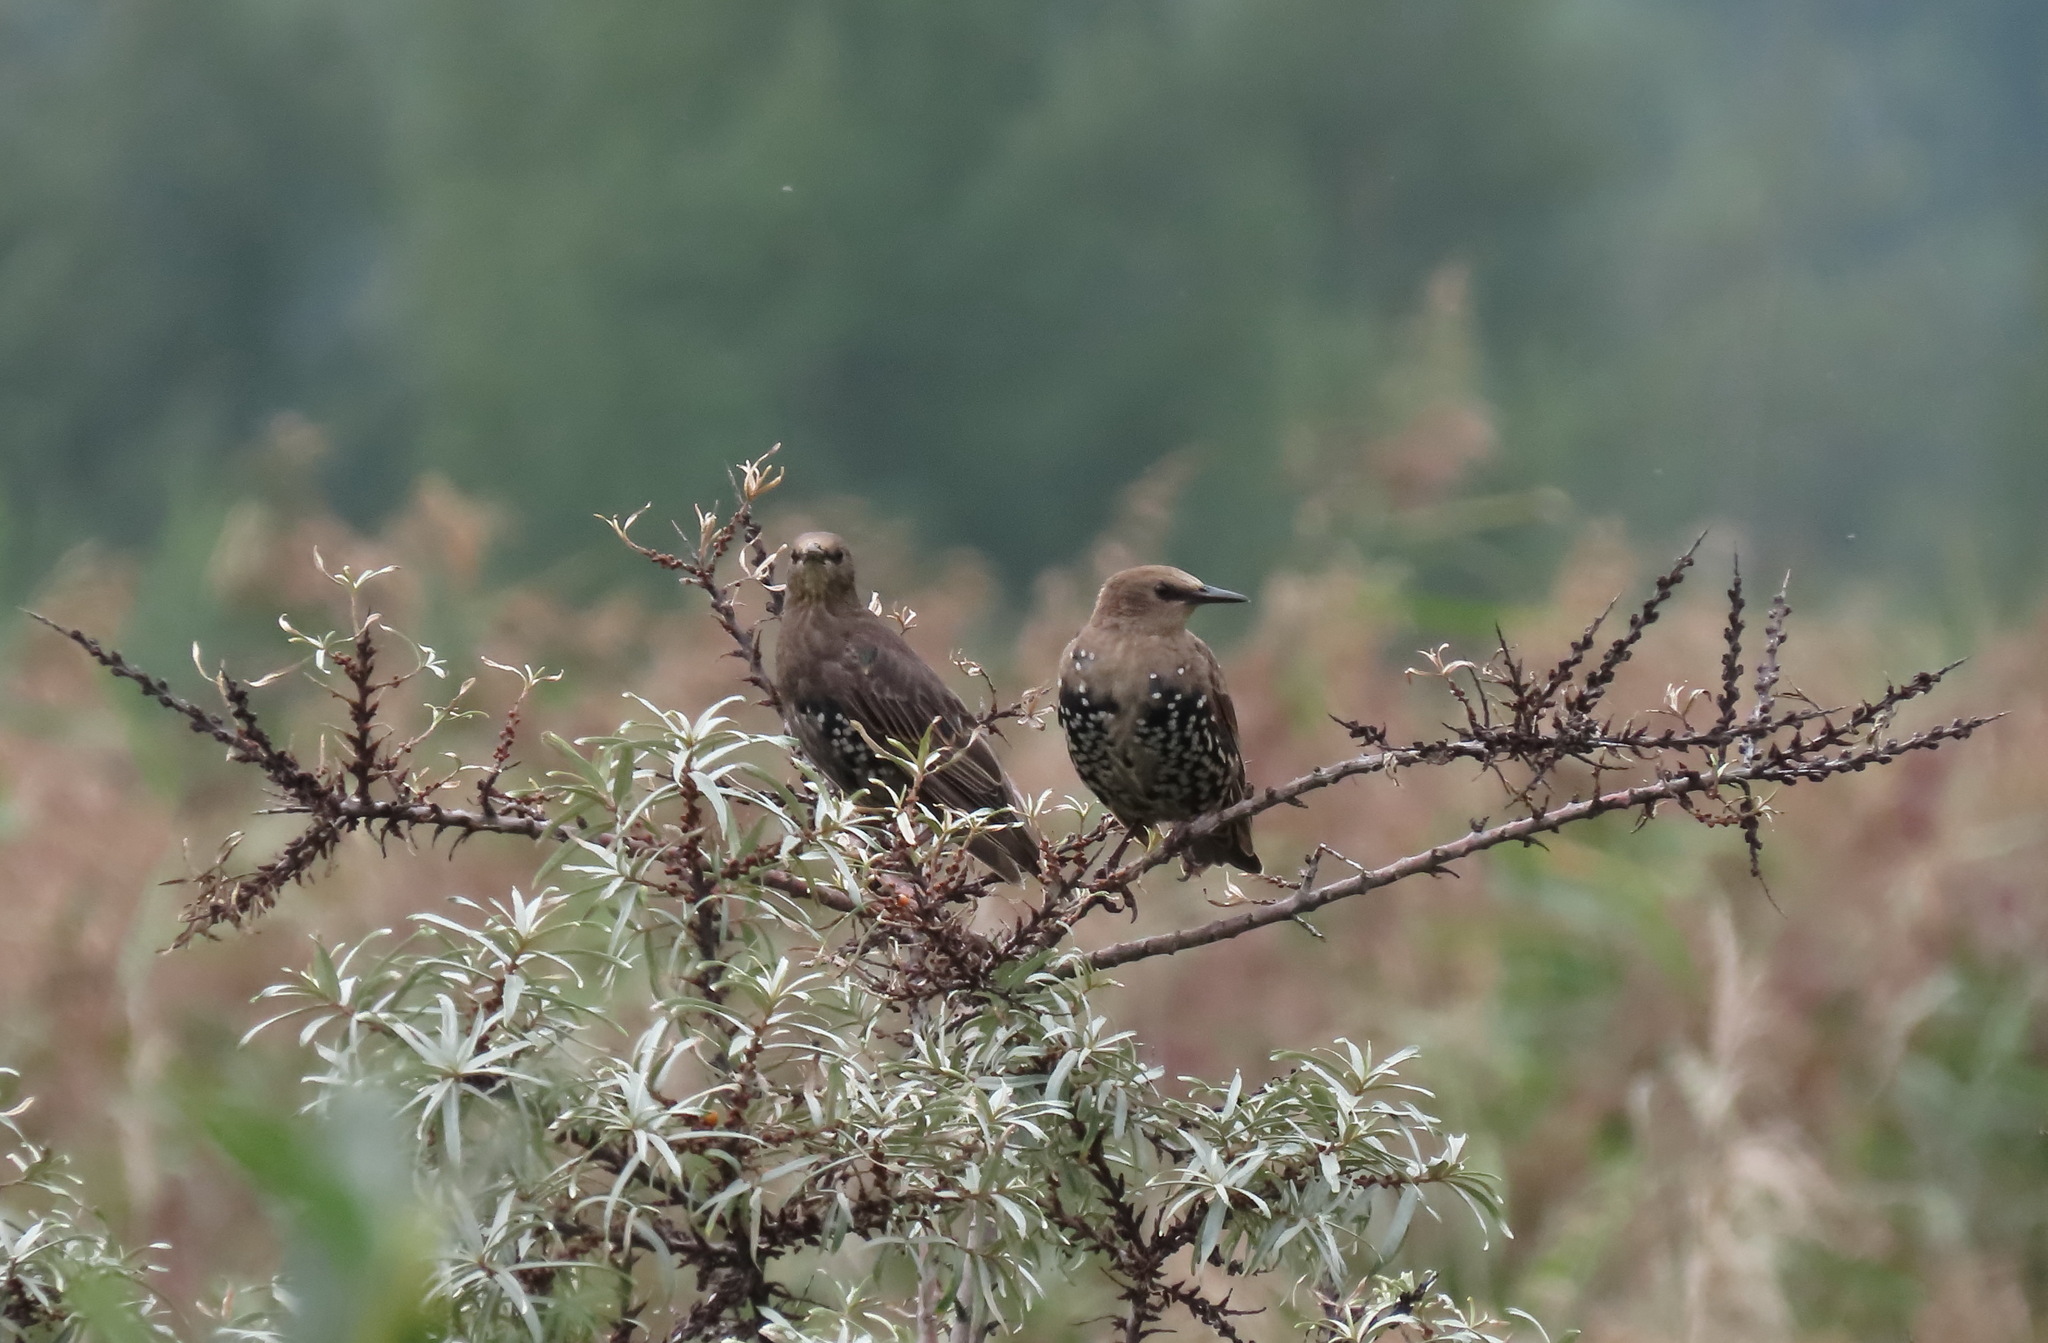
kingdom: Animalia
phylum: Chordata
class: Aves
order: Passeriformes
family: Sturnidae
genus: Sturnus
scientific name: Sturnus vulgaris
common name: Common starling
